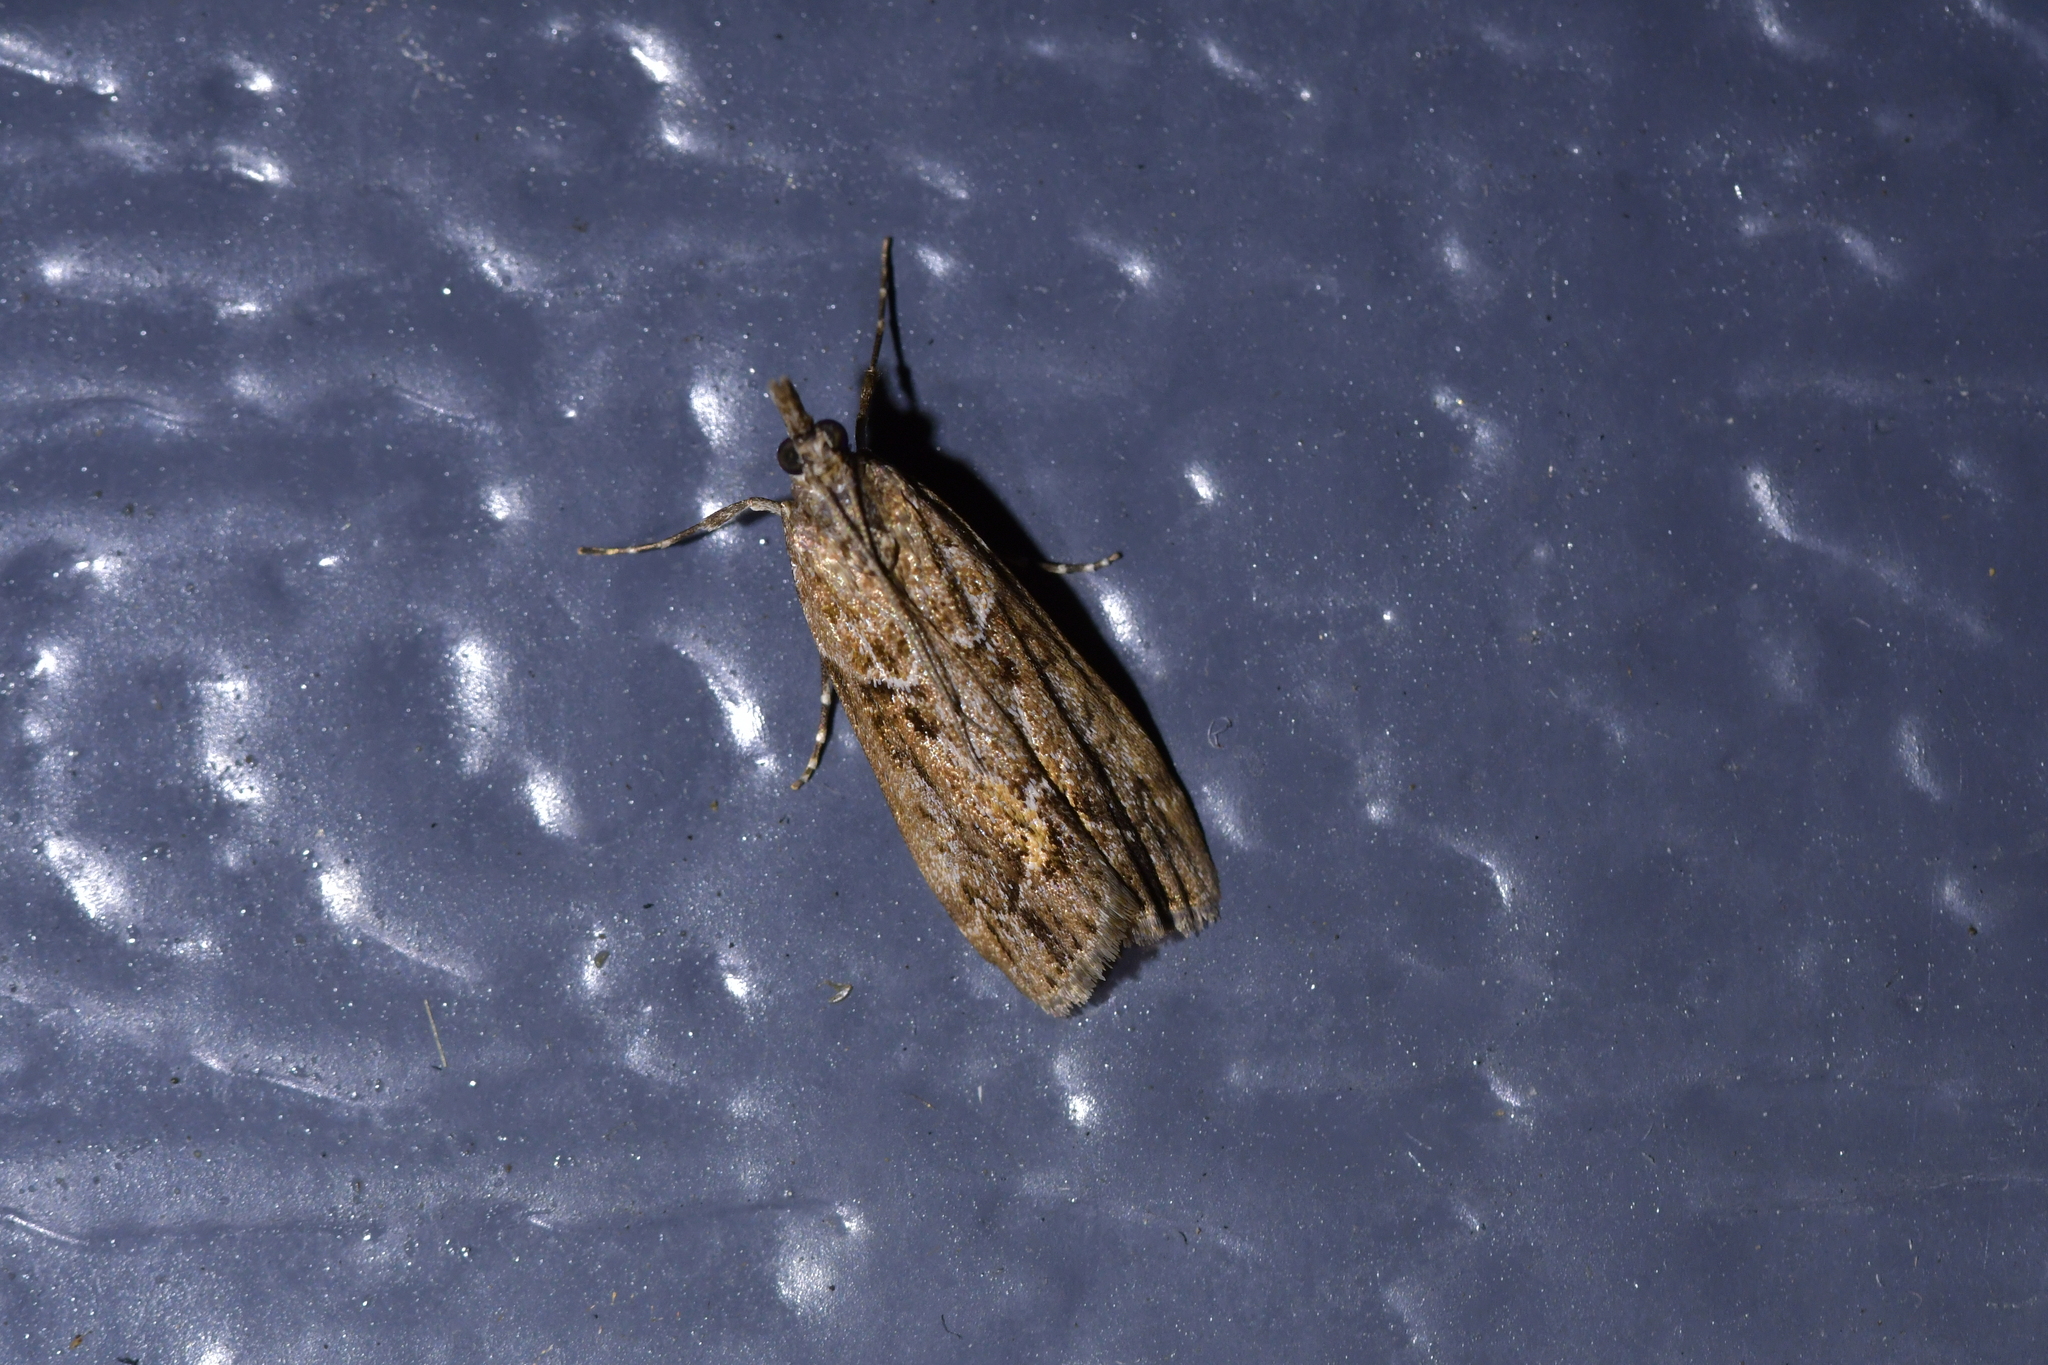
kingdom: Animalia
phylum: Arthropoda
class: Insecta
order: Lepidoptera
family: Crambidae
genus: Eudonia
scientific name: Eudonia submarginalis
